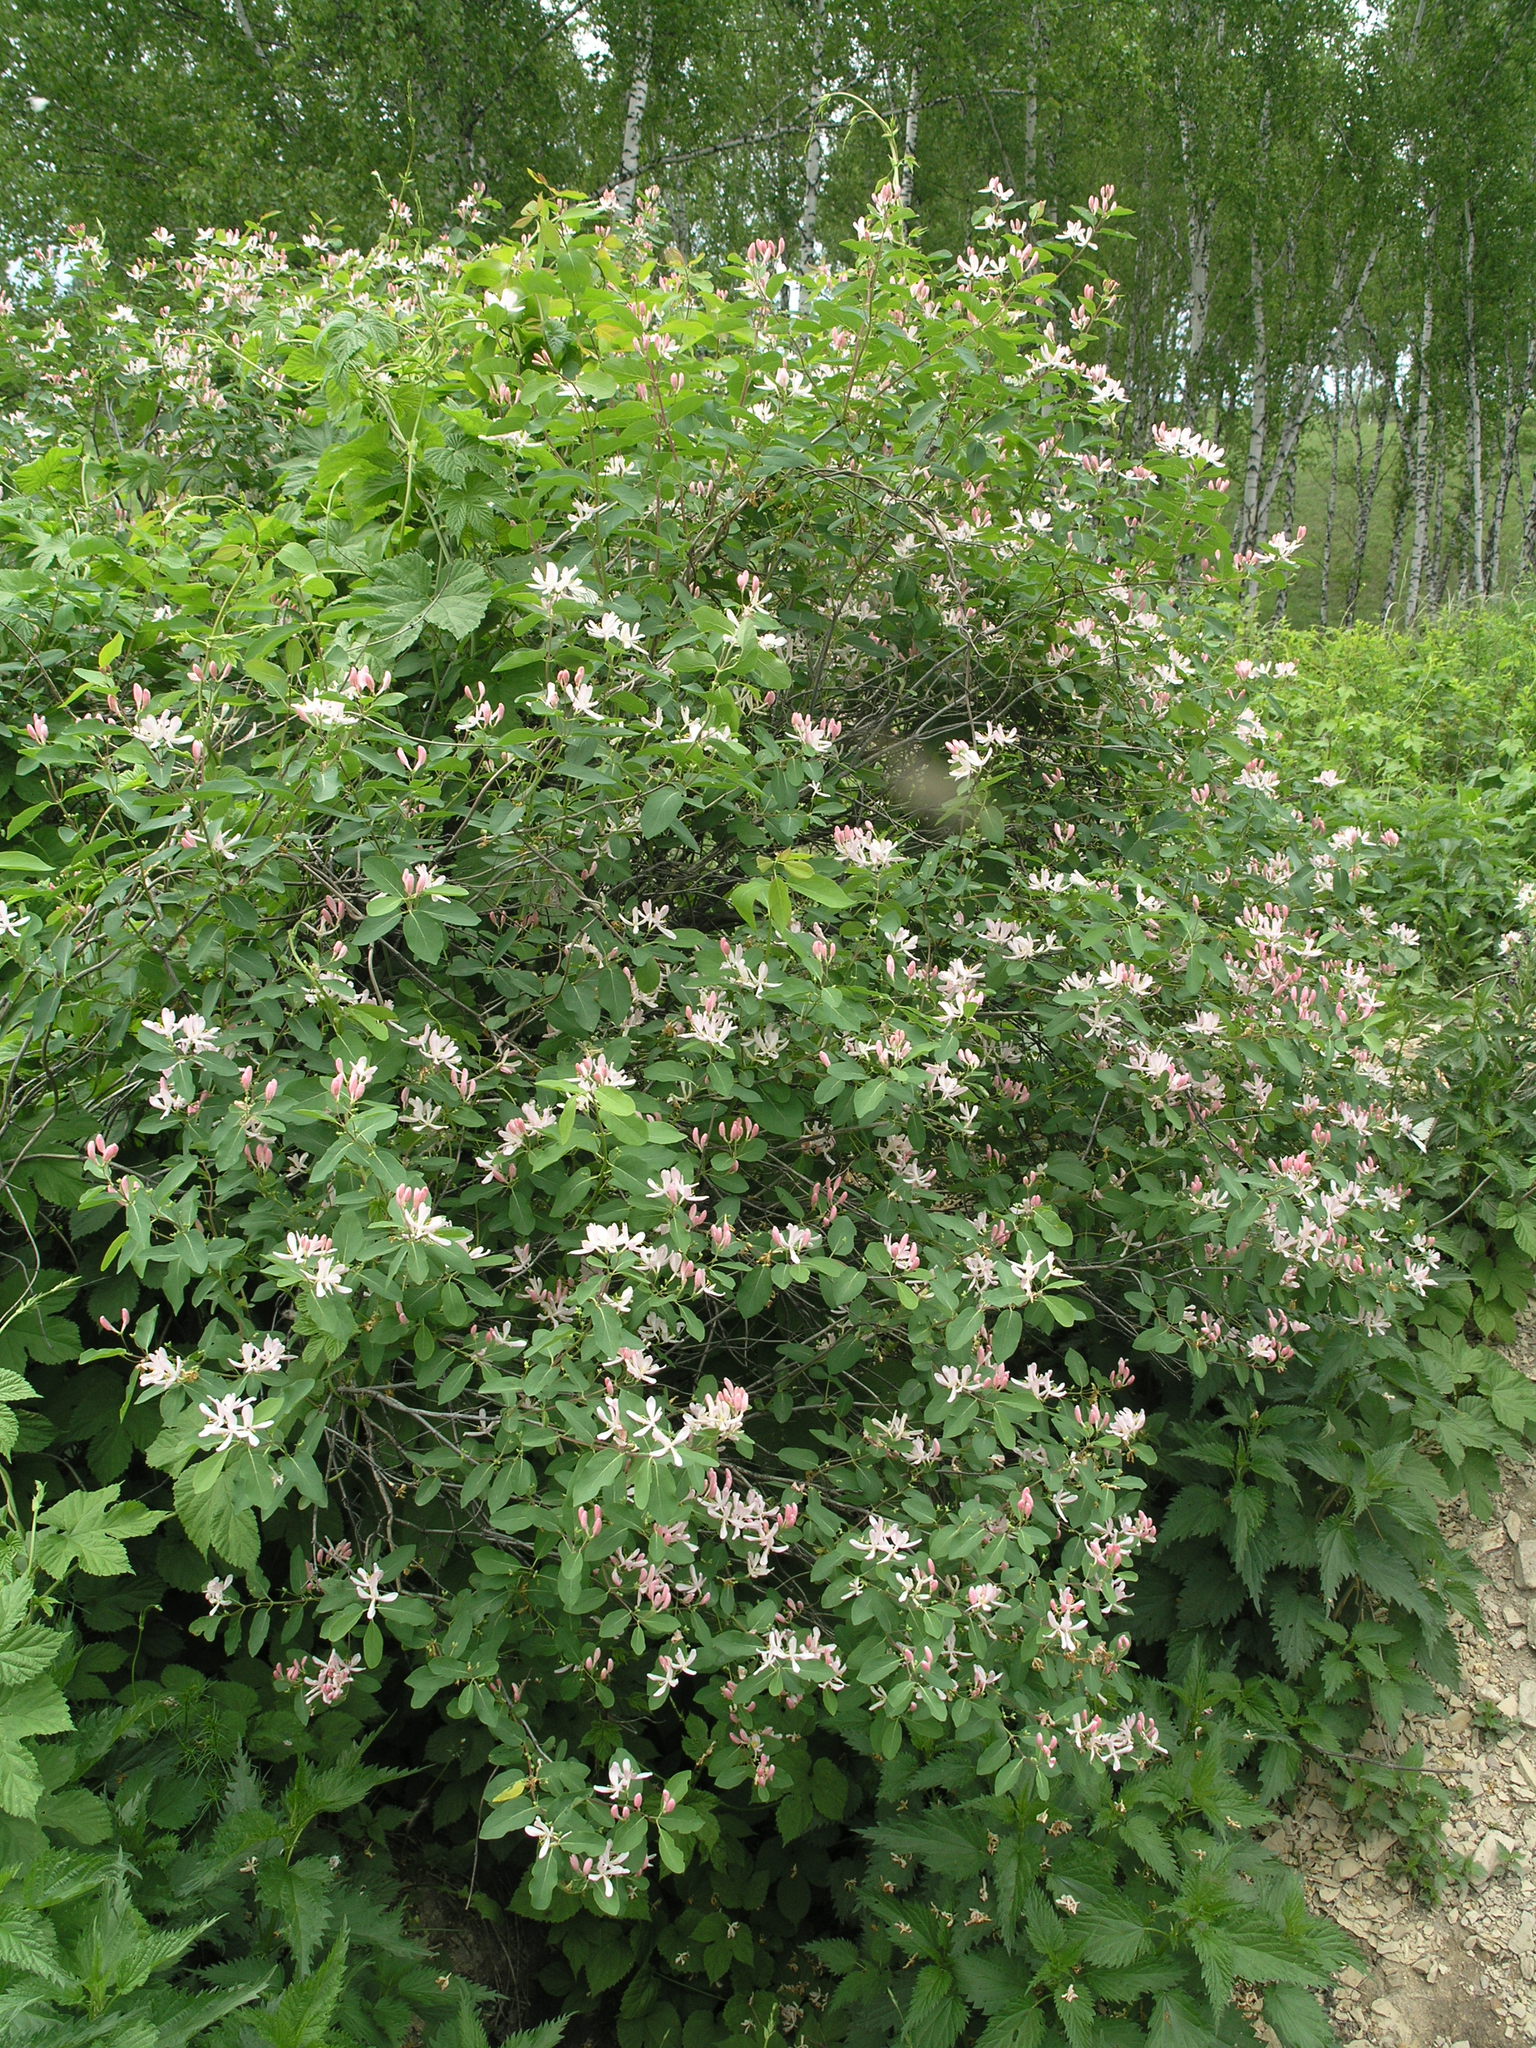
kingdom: Plantae
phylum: Tracheophyta
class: Magnoliopsida
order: Dipsacales
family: Caprifoliaceae
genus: Lonicera
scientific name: Lonicera tatarica
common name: Tatarian honeysuckle
